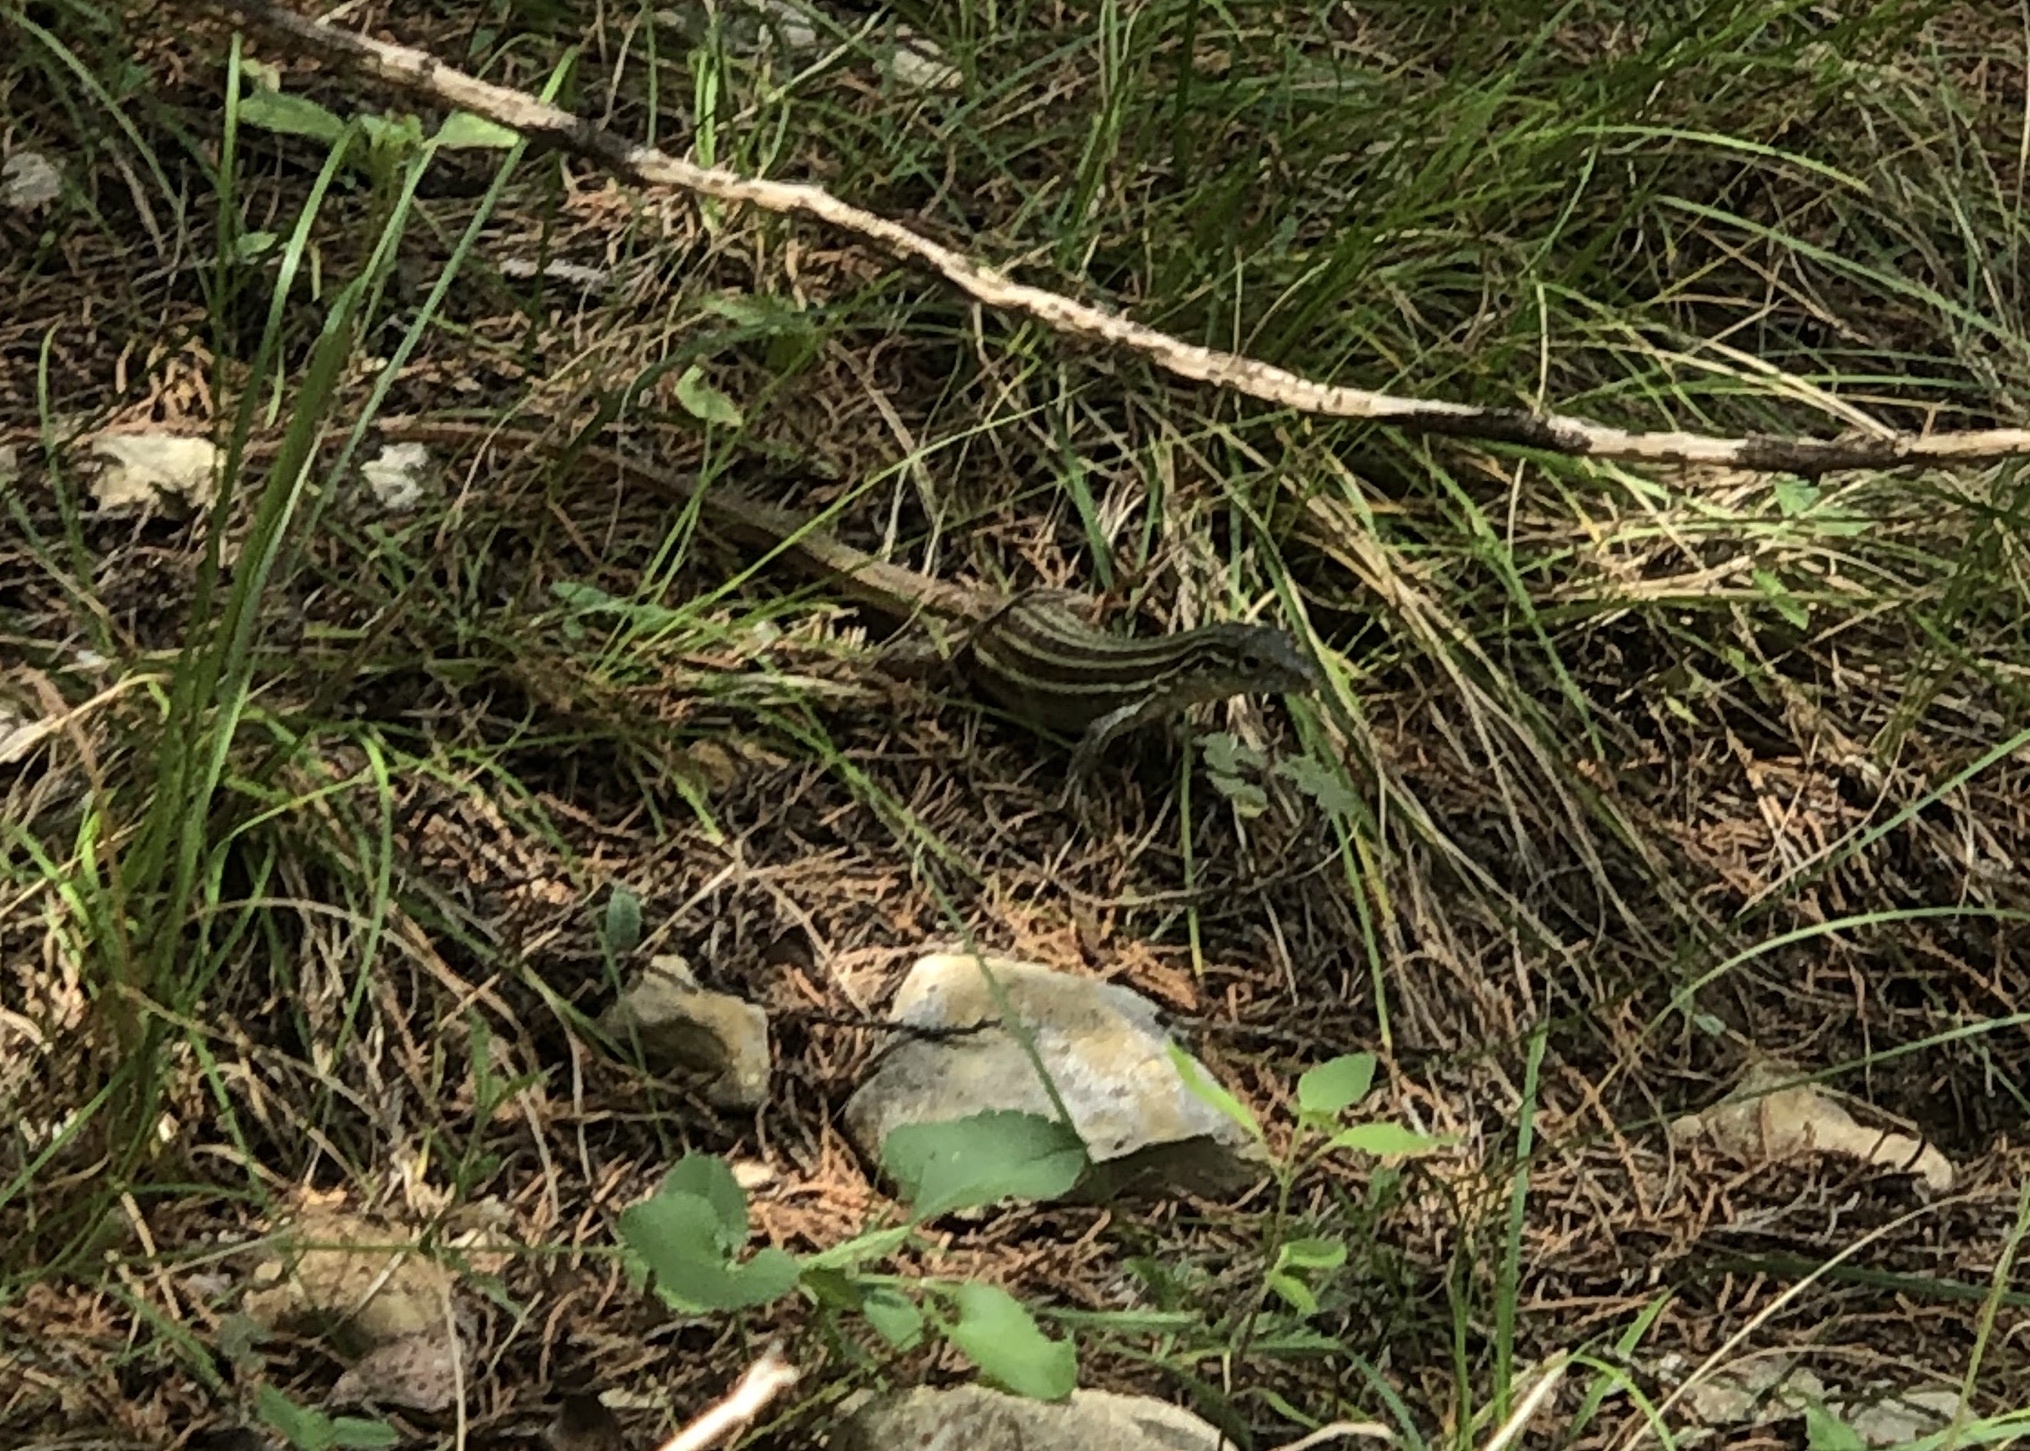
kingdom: Animalia
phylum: Chordata
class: Squamata
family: Teiidae
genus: Aspidoscelis
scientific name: Aspidoscelis gularis
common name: Eastern spotted whiptail
